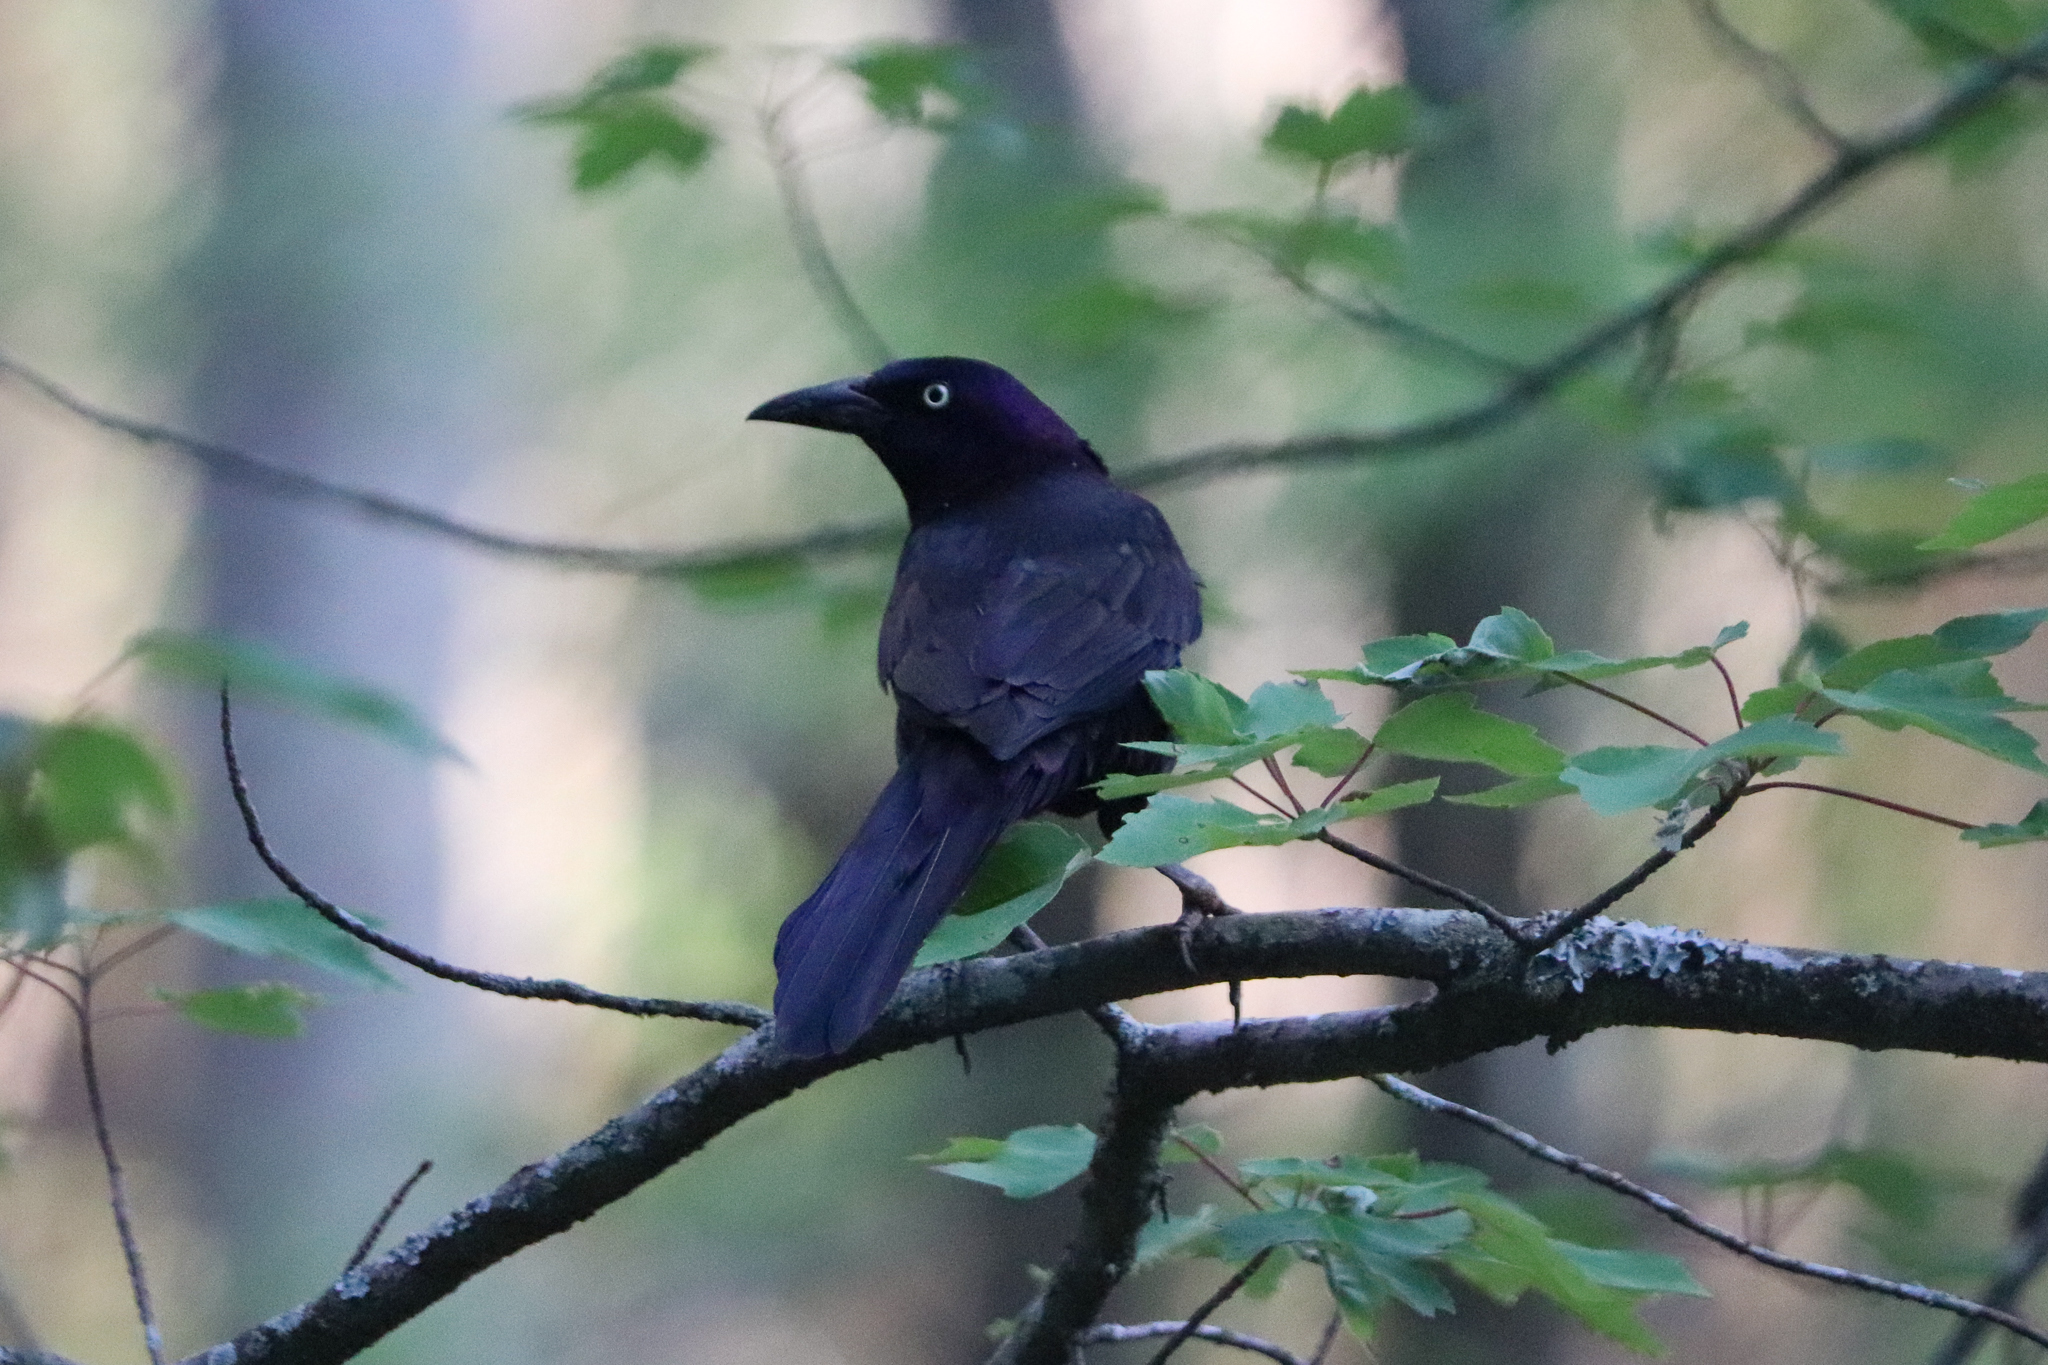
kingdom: Animalia
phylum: Chordata
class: Aves
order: Passeriformes
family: Icteridae
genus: Quiscalus
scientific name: Quiscalus quiscula
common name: Common grackle
